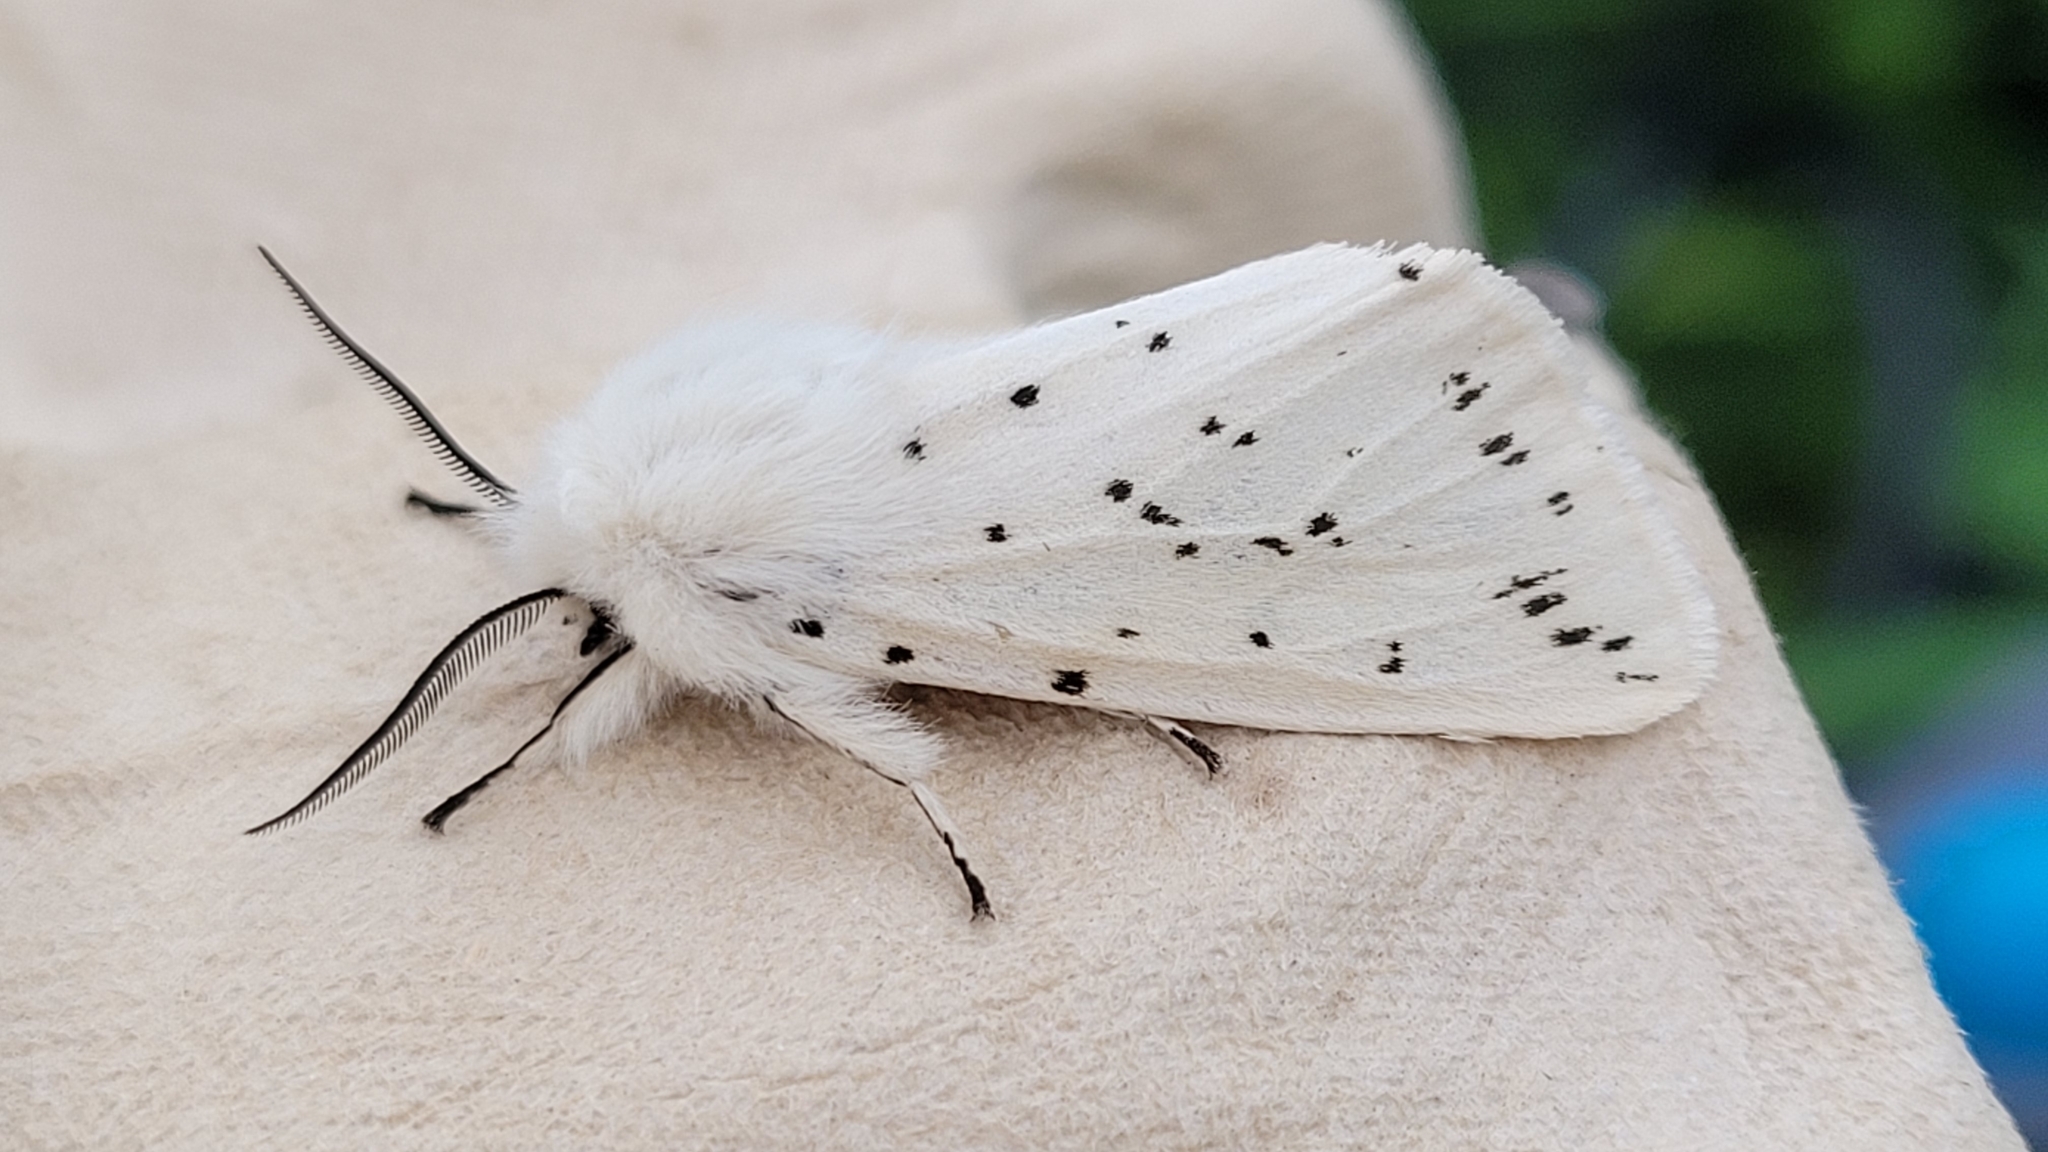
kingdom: Animalia
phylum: Arthropoda
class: Insecta
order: Lepidoptera
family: Erebidae
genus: Spilosoma
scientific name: Spilosoma lubricipeda
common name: White ermine
